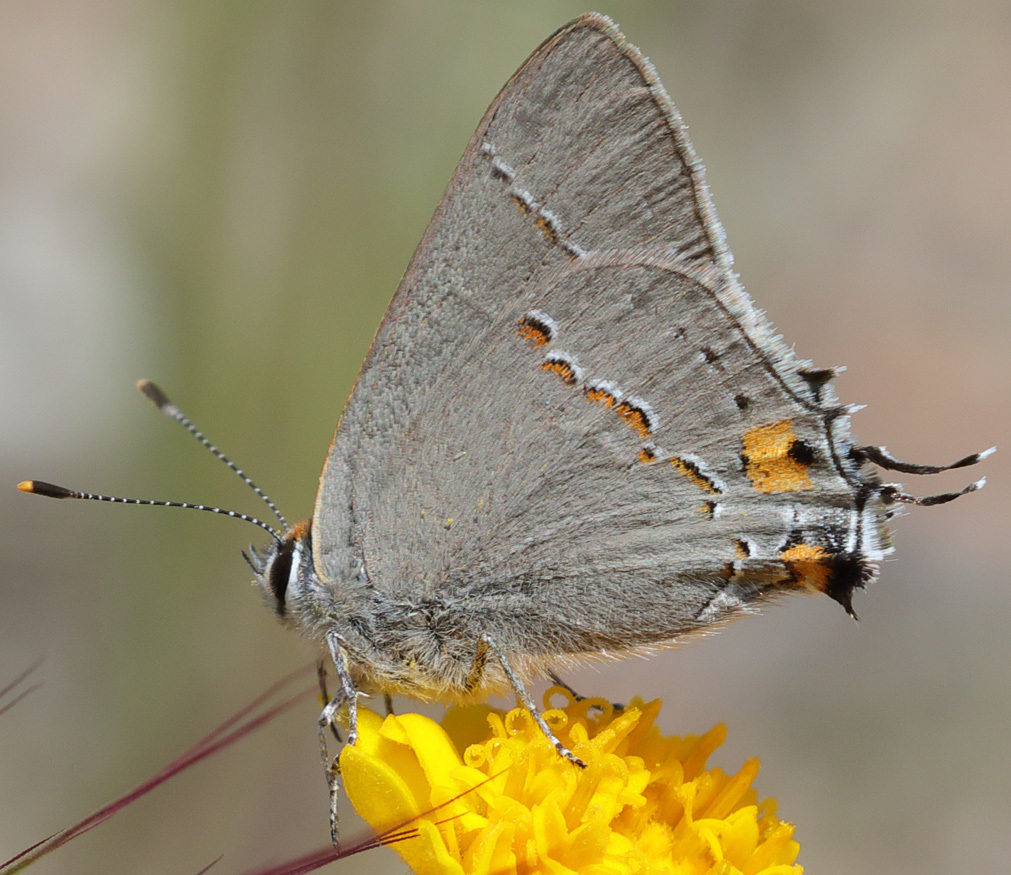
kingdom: Animalia
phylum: Arthropoda
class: Insecta
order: Lepidoptera
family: Lycaenidae
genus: Strymon
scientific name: Strymon melinus
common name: Gray hairstreak
